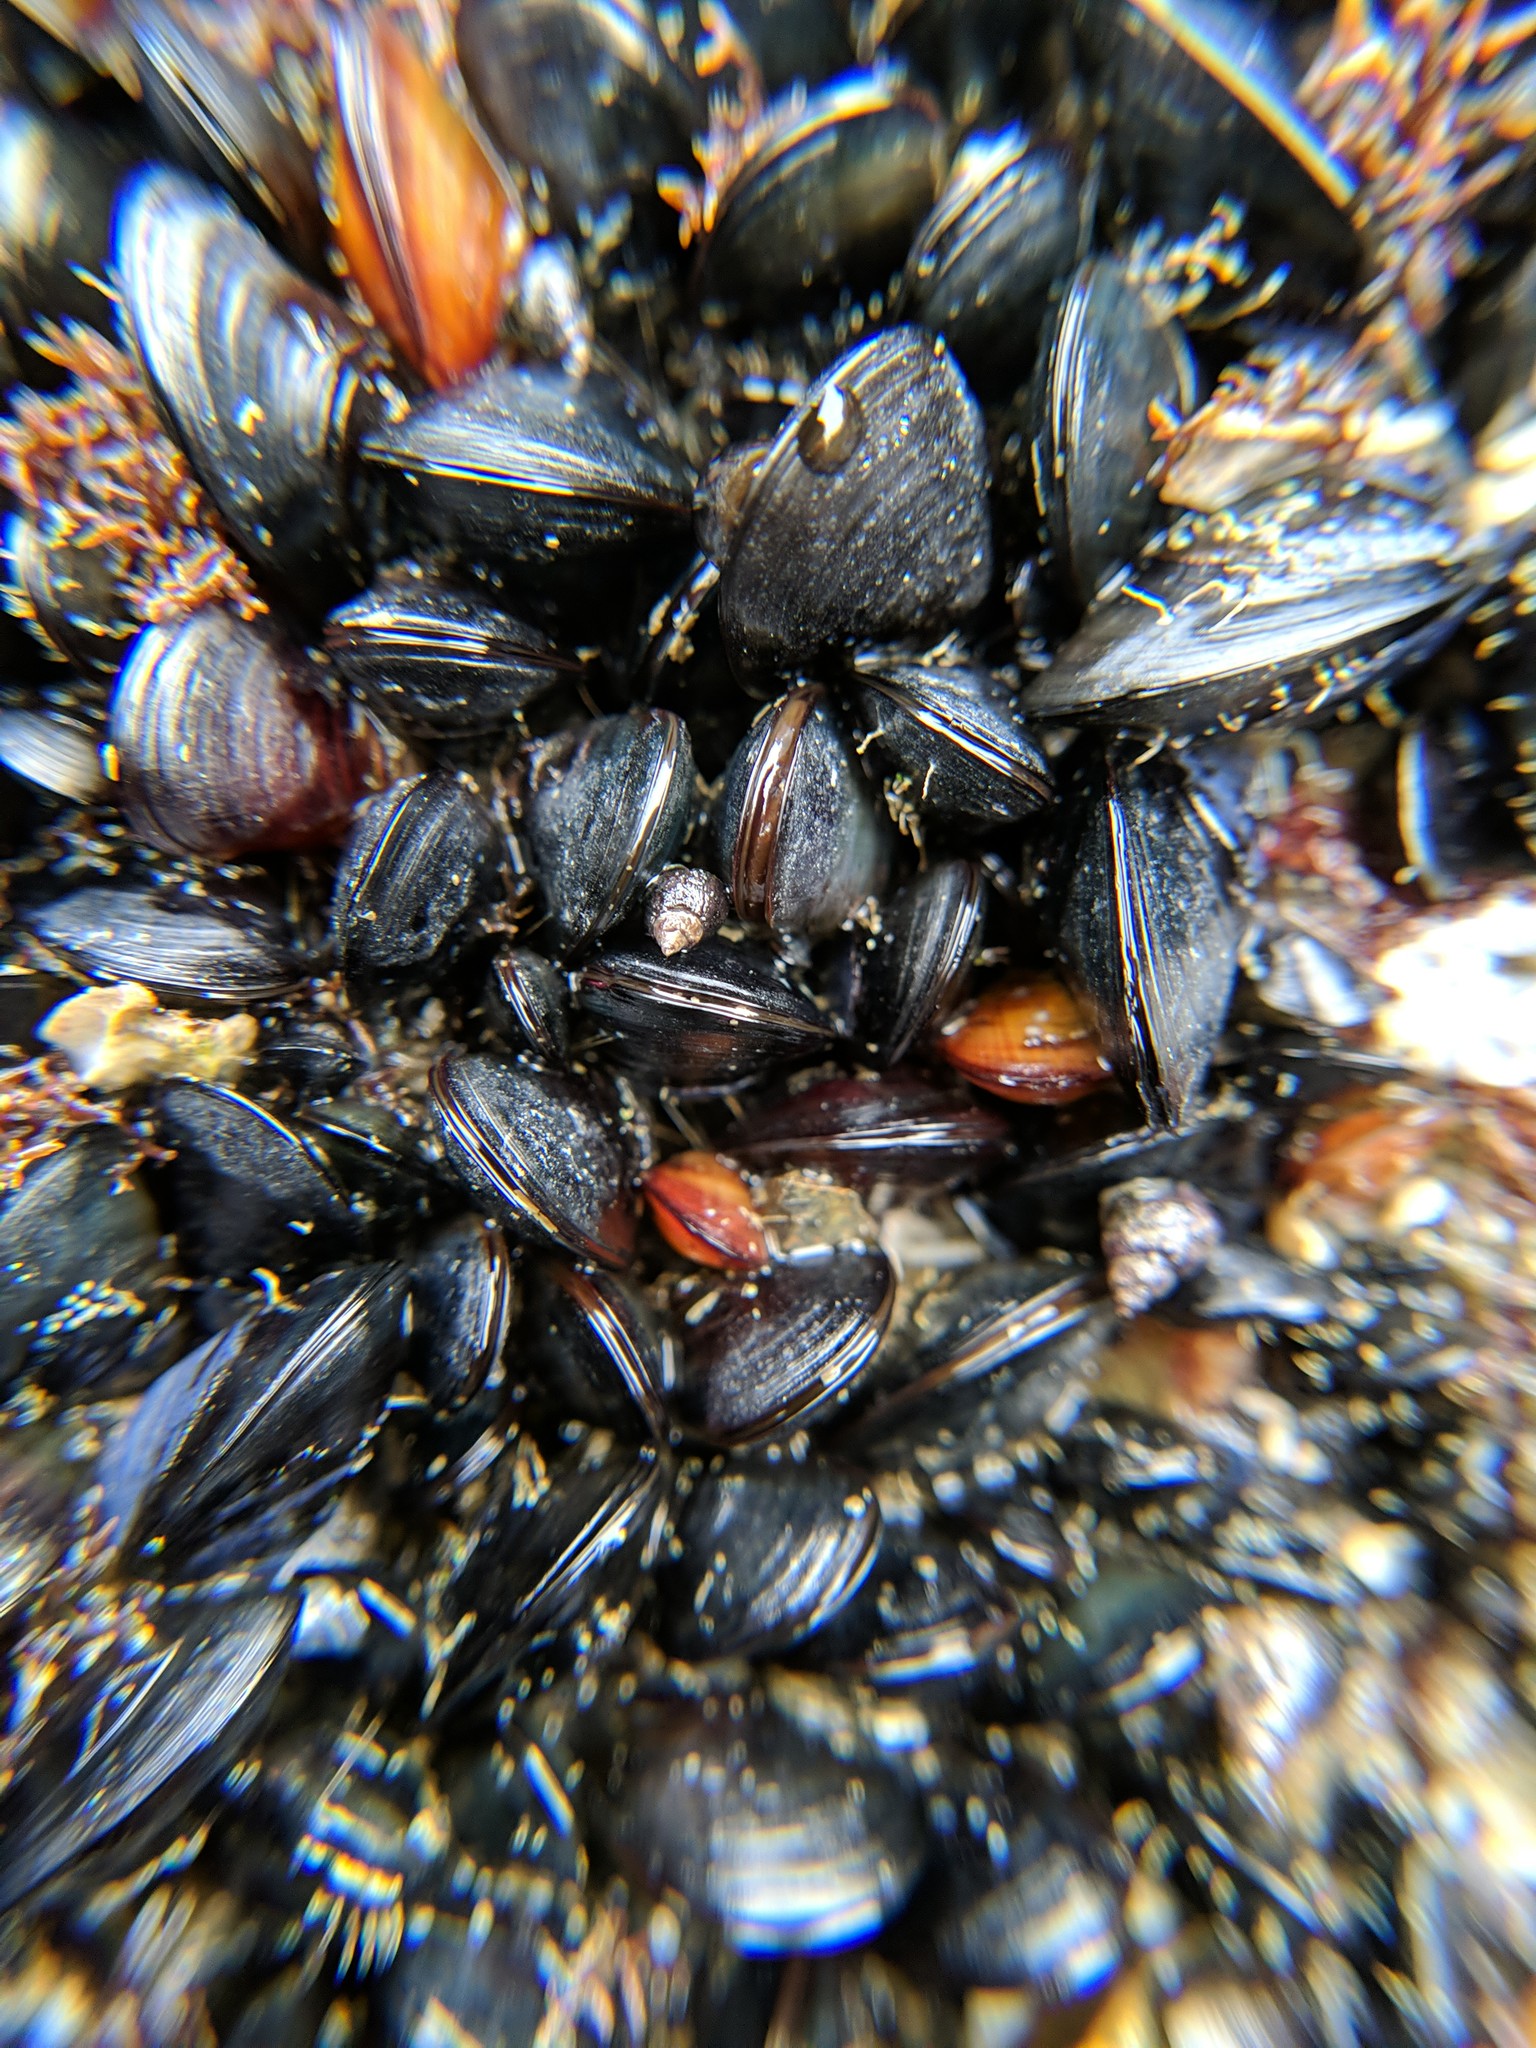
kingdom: Animalia
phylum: Mollusca
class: Bivalvia
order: Mytilida
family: Mytilidae
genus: Mytilus
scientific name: Mytilus
